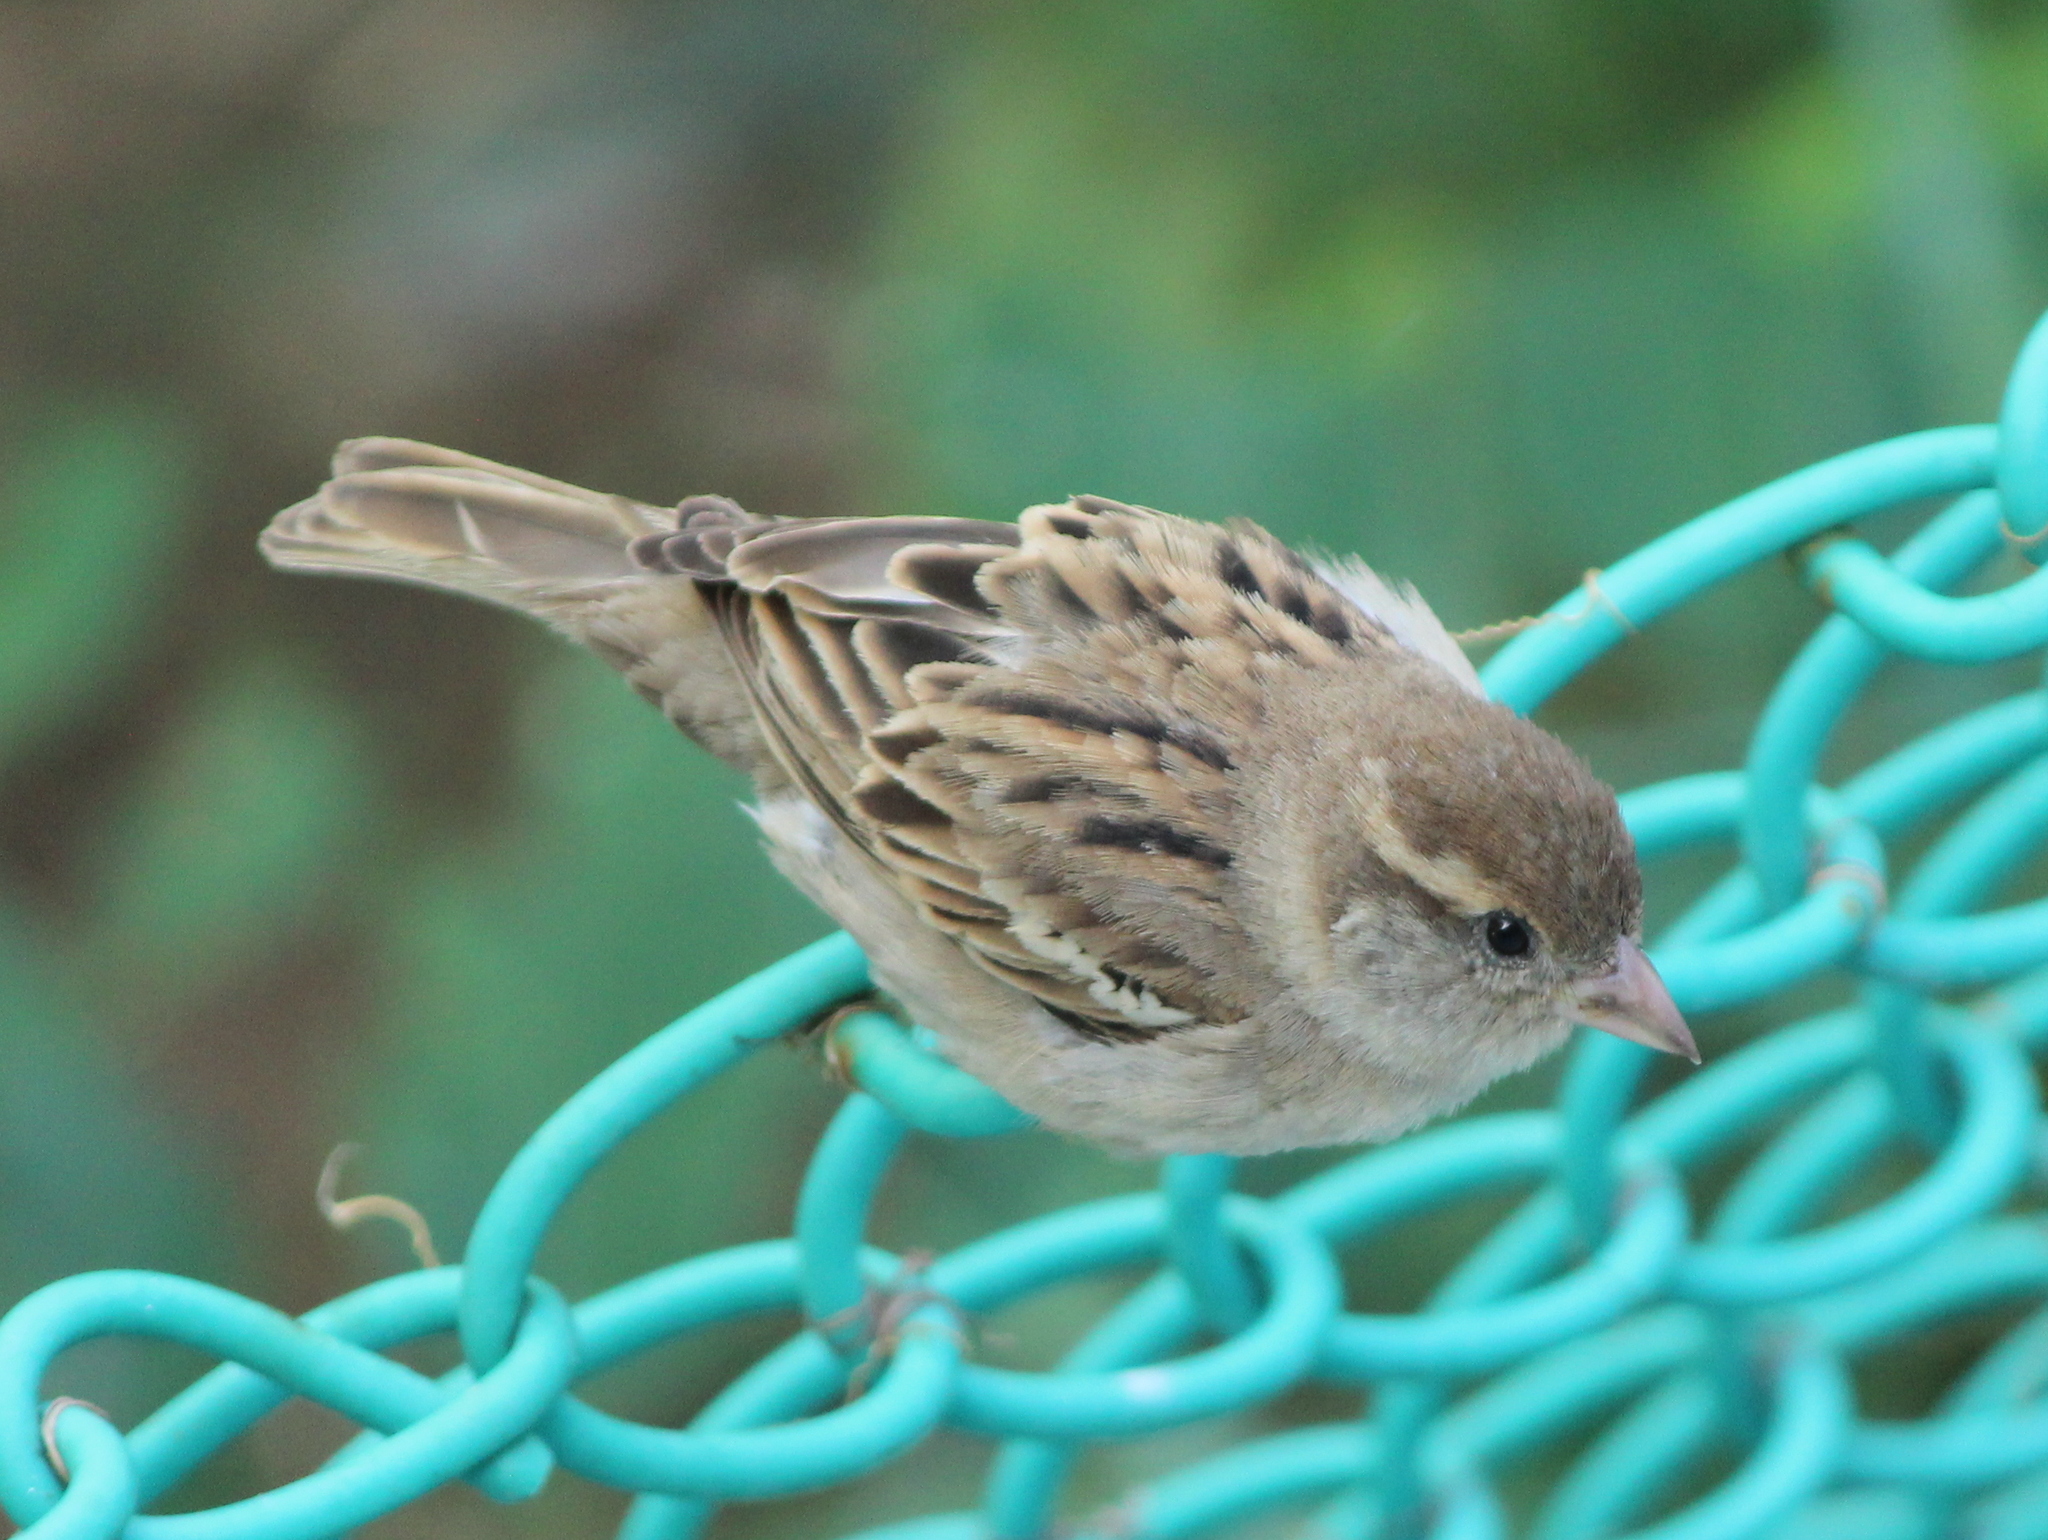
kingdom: Animalia
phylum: Chordata
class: Aves
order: Passeriformes
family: Passeridae
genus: Passer
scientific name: Passer domesticus
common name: House sparrow
